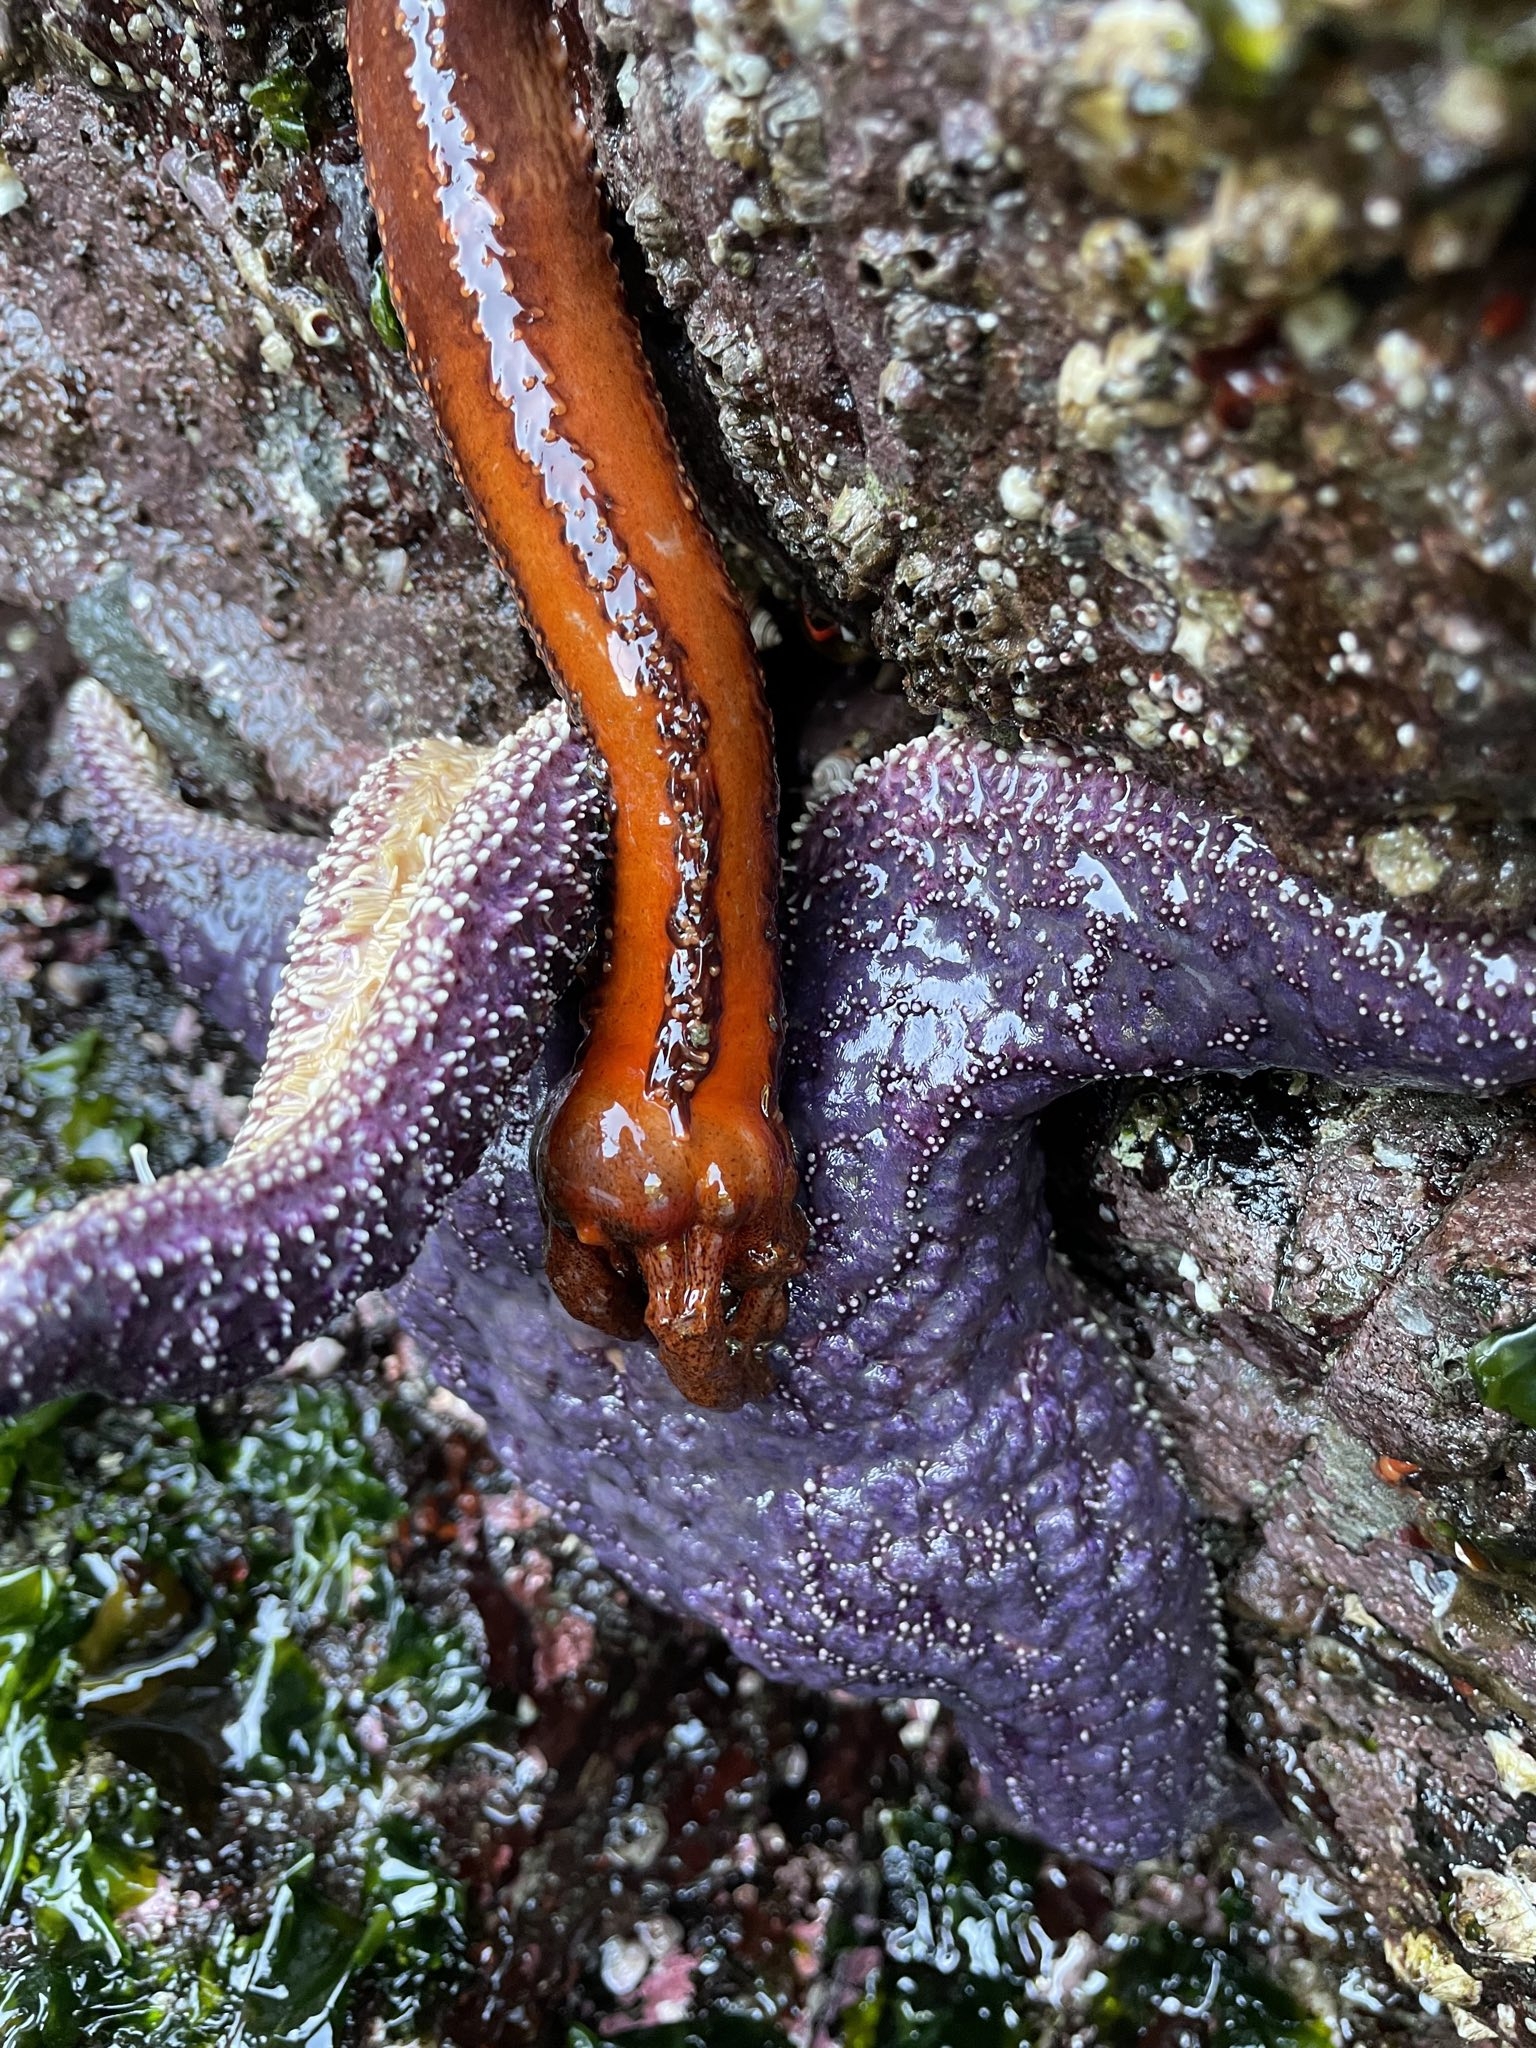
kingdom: Animalia
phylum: Echinodermata
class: Holothuroidea
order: Dendrochirotida
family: Cucumariidae
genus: Cucumaria
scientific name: Cucumaria miniata
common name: Orange sea cucumber
